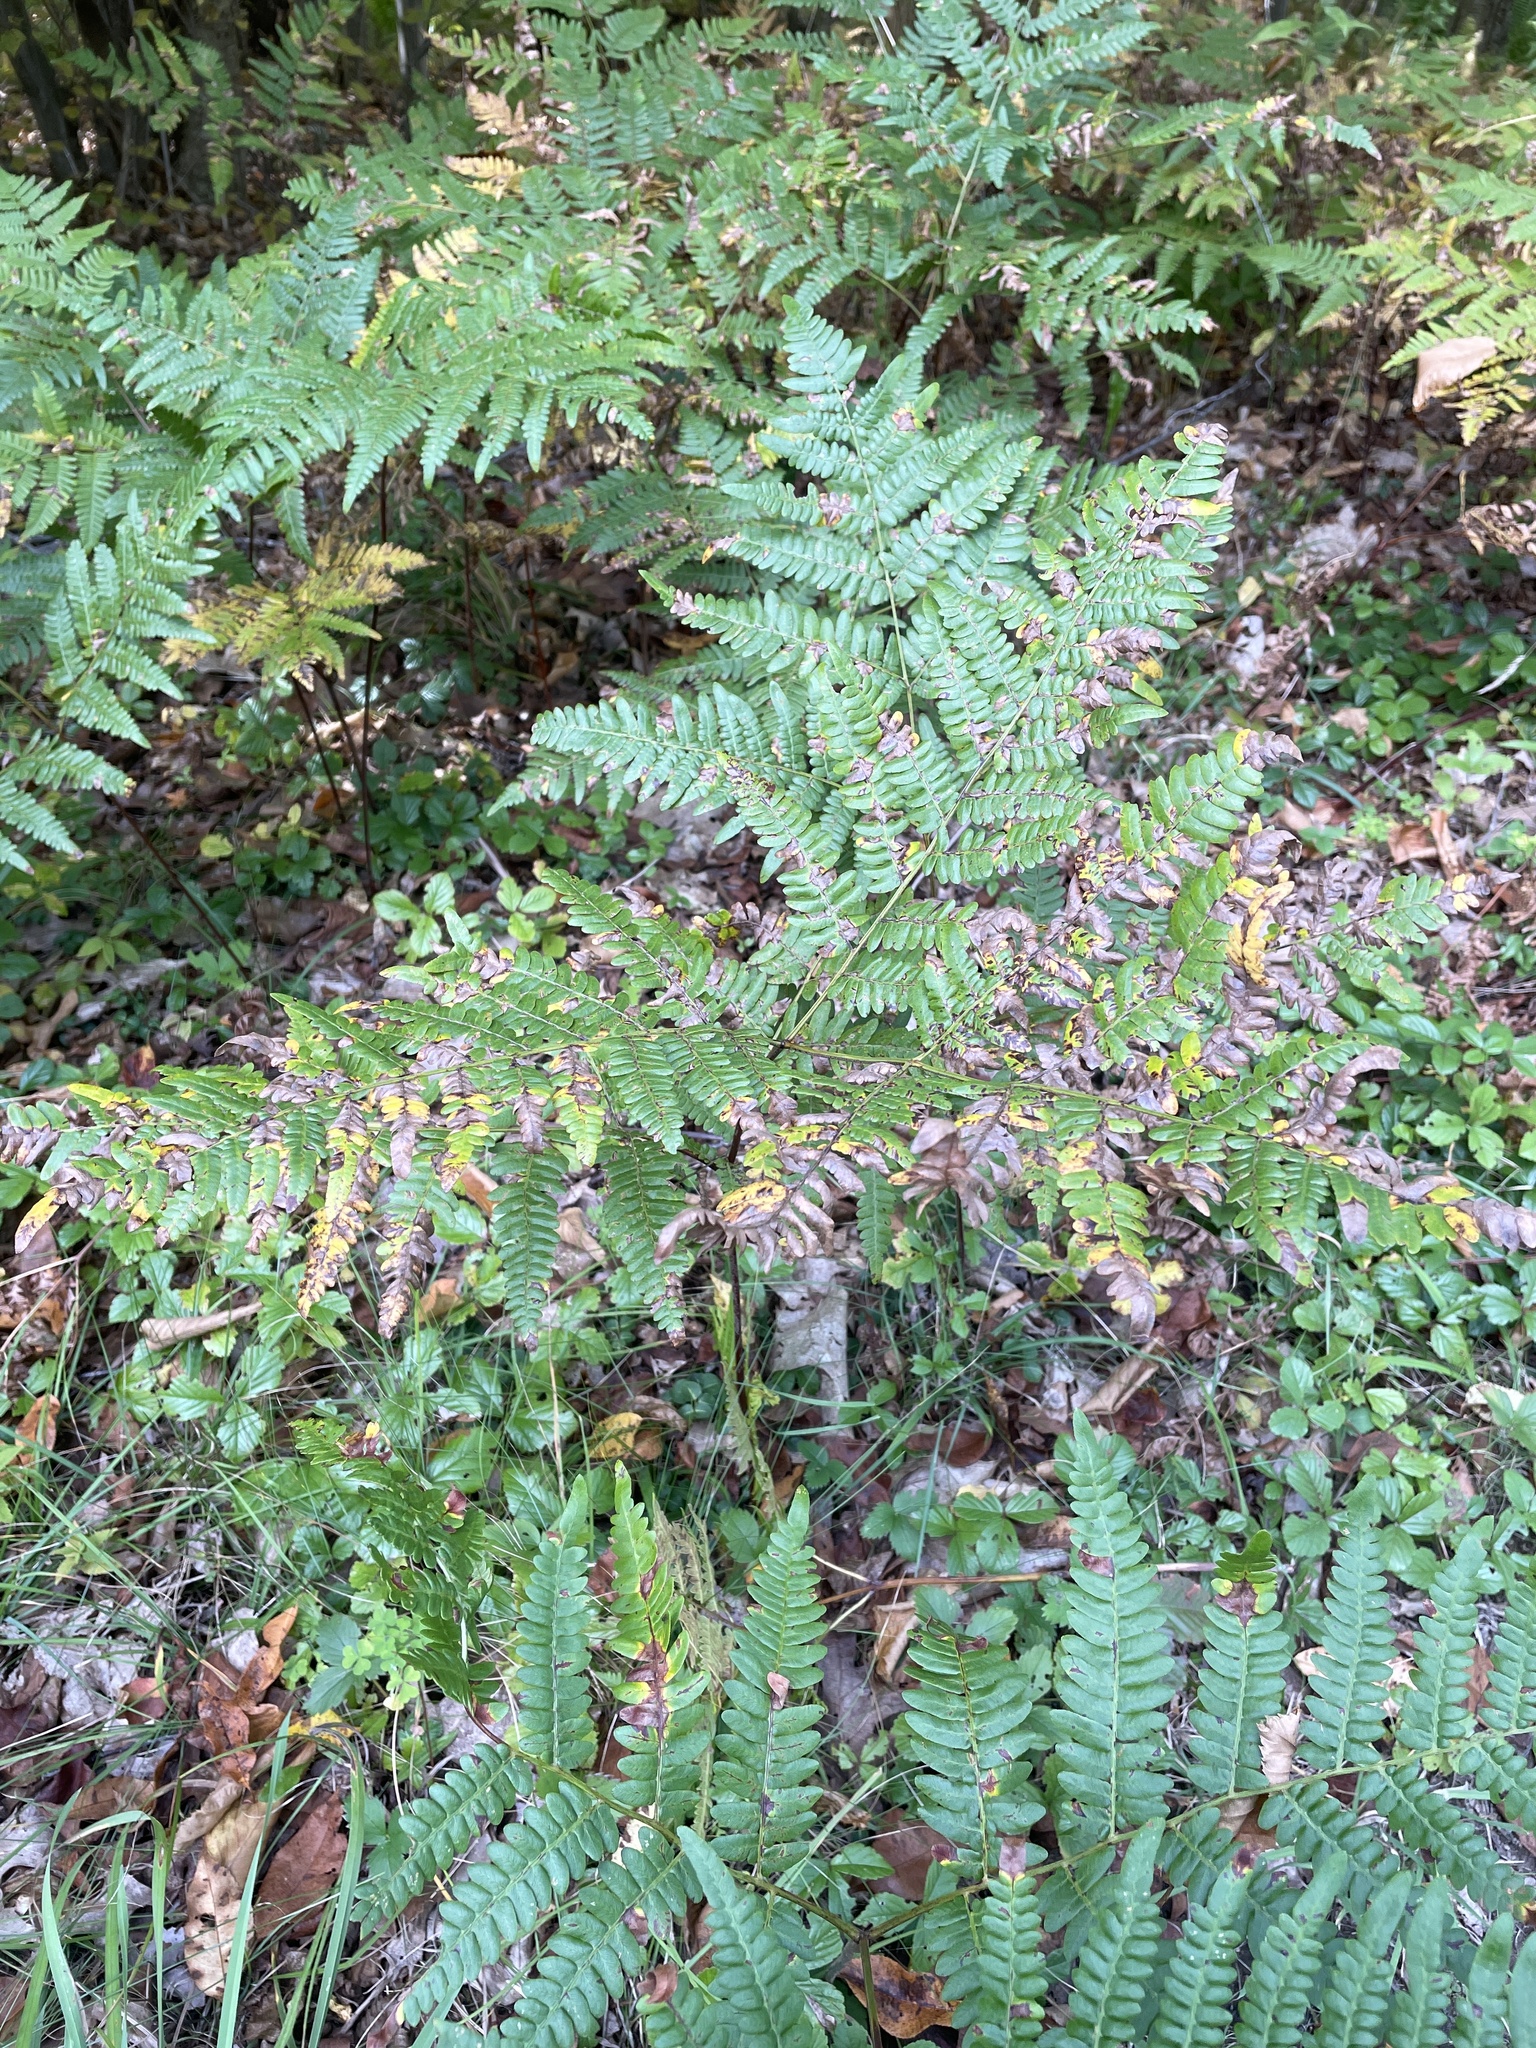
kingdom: Plantae
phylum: Tracheophyta
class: Polypodiopsida
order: Polypodiales
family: Dennstaedtiaceae
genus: Pteridium
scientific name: Pteridium aquilinum
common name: Bracken
